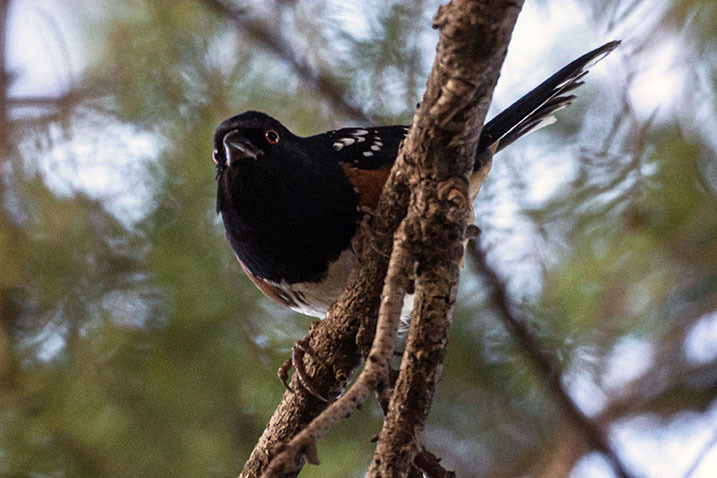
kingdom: Animalia
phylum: Chordata
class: Aves
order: Passeriformes
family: Passerellidae
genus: Pipilo
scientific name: Pipilo maculatus
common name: Spotted towhee
